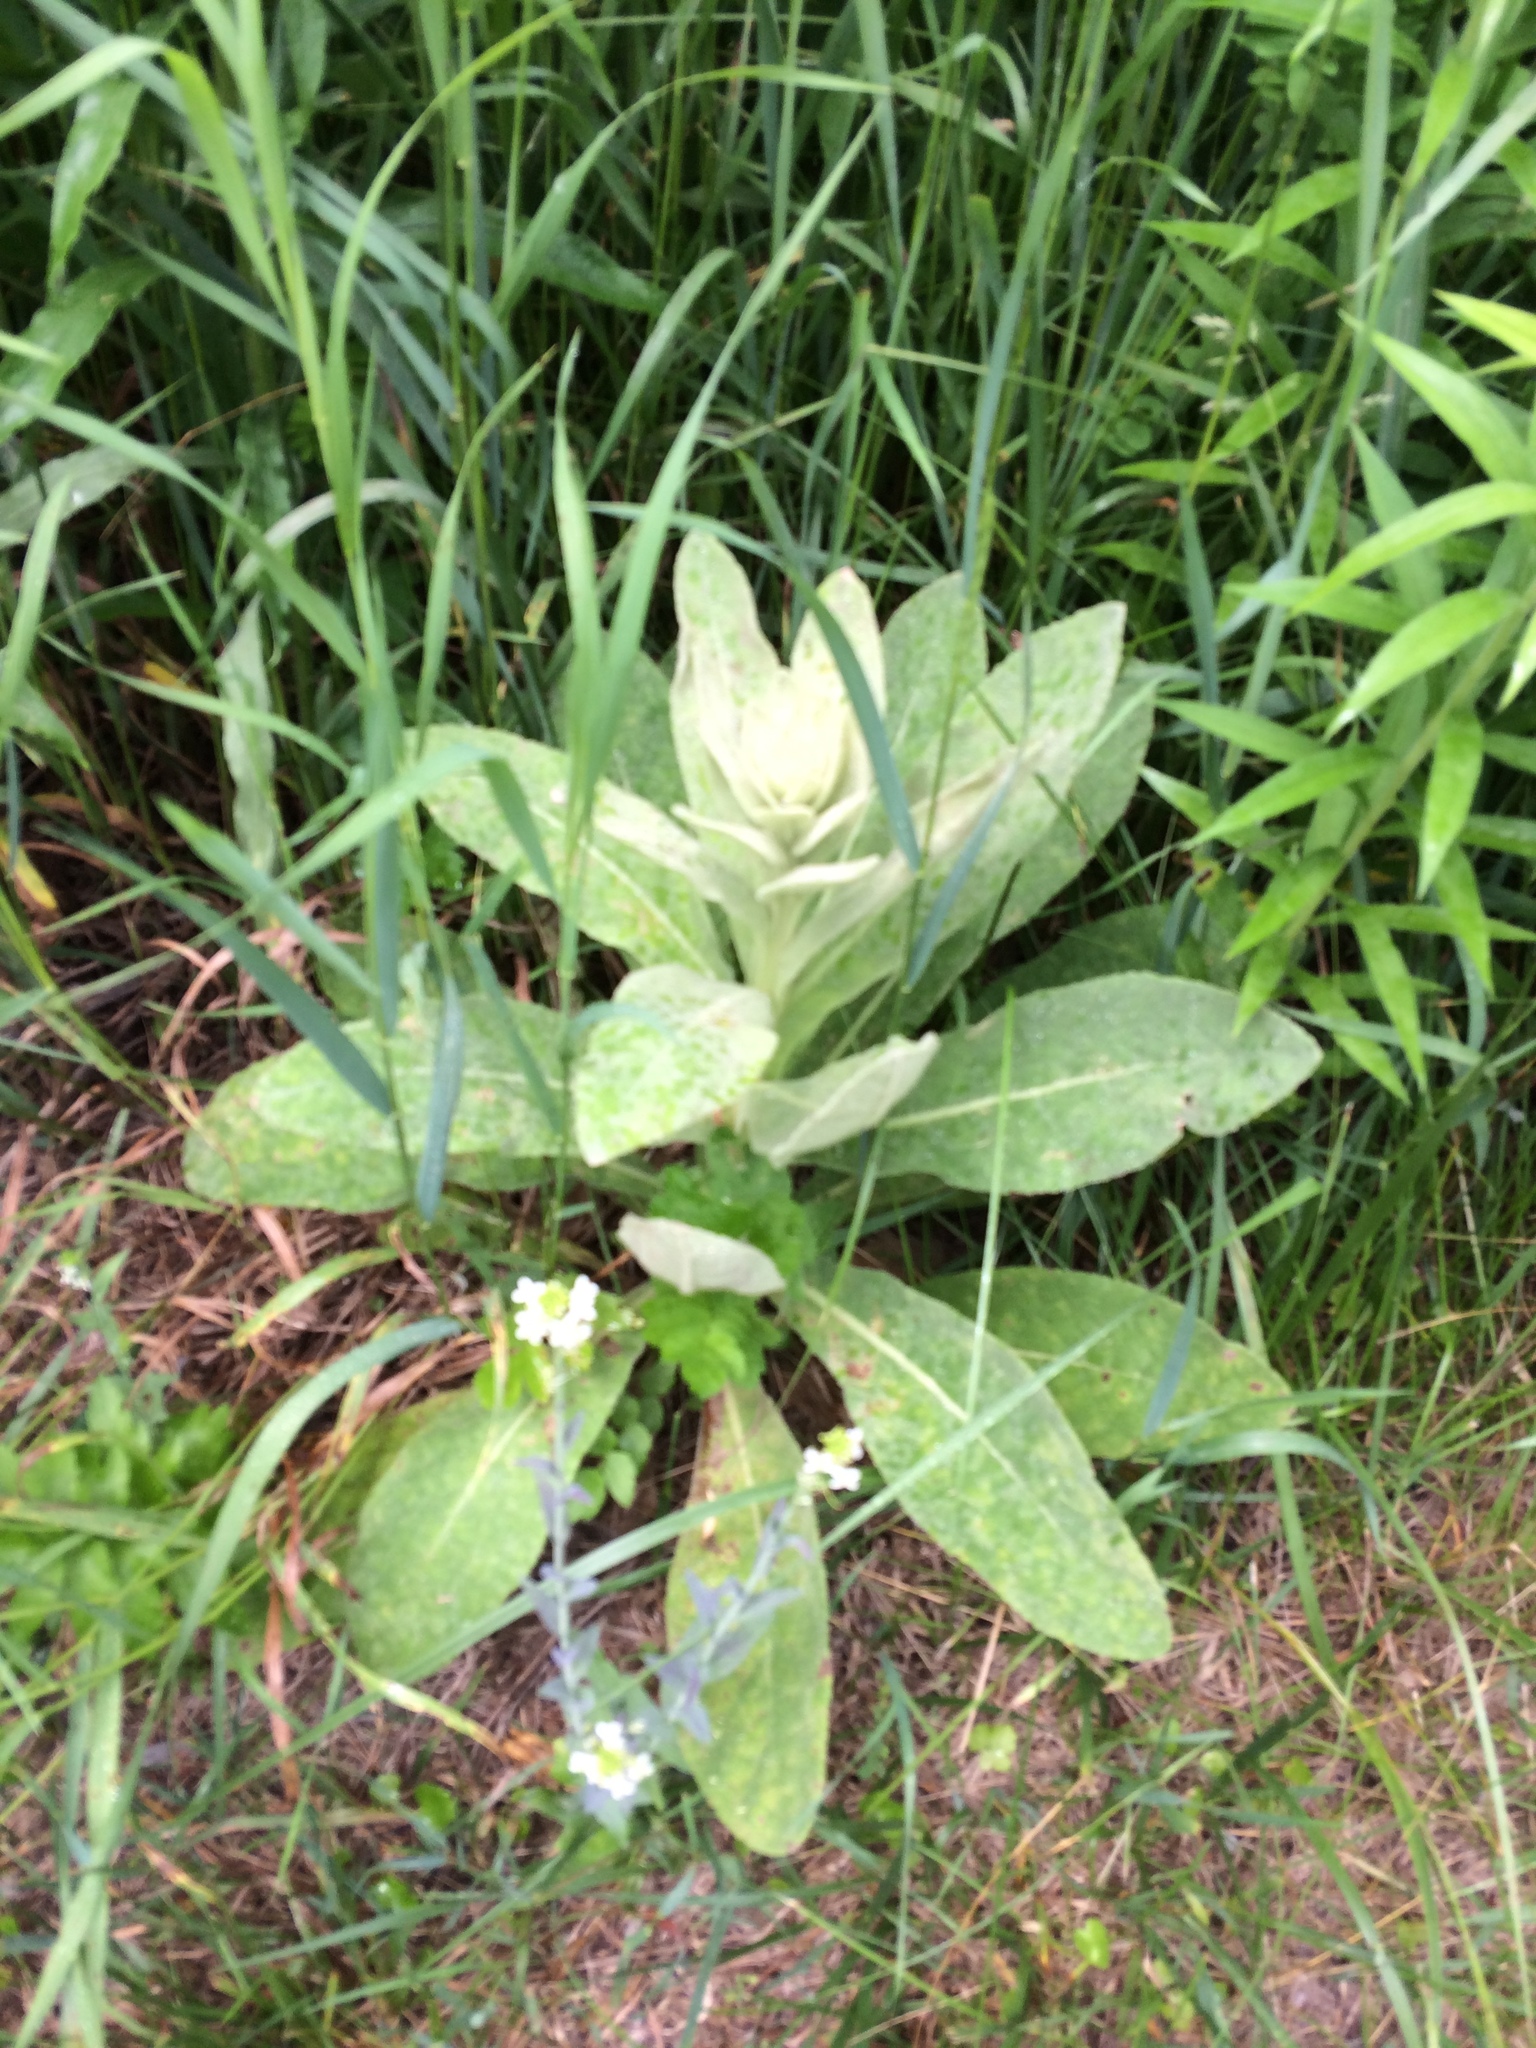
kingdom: Plantae
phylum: Tracheophyta
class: Magnoliopsida
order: Lamiales
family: Scrophulariaceae
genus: Verbascum
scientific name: Verbascum thapsus
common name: Common mullein
